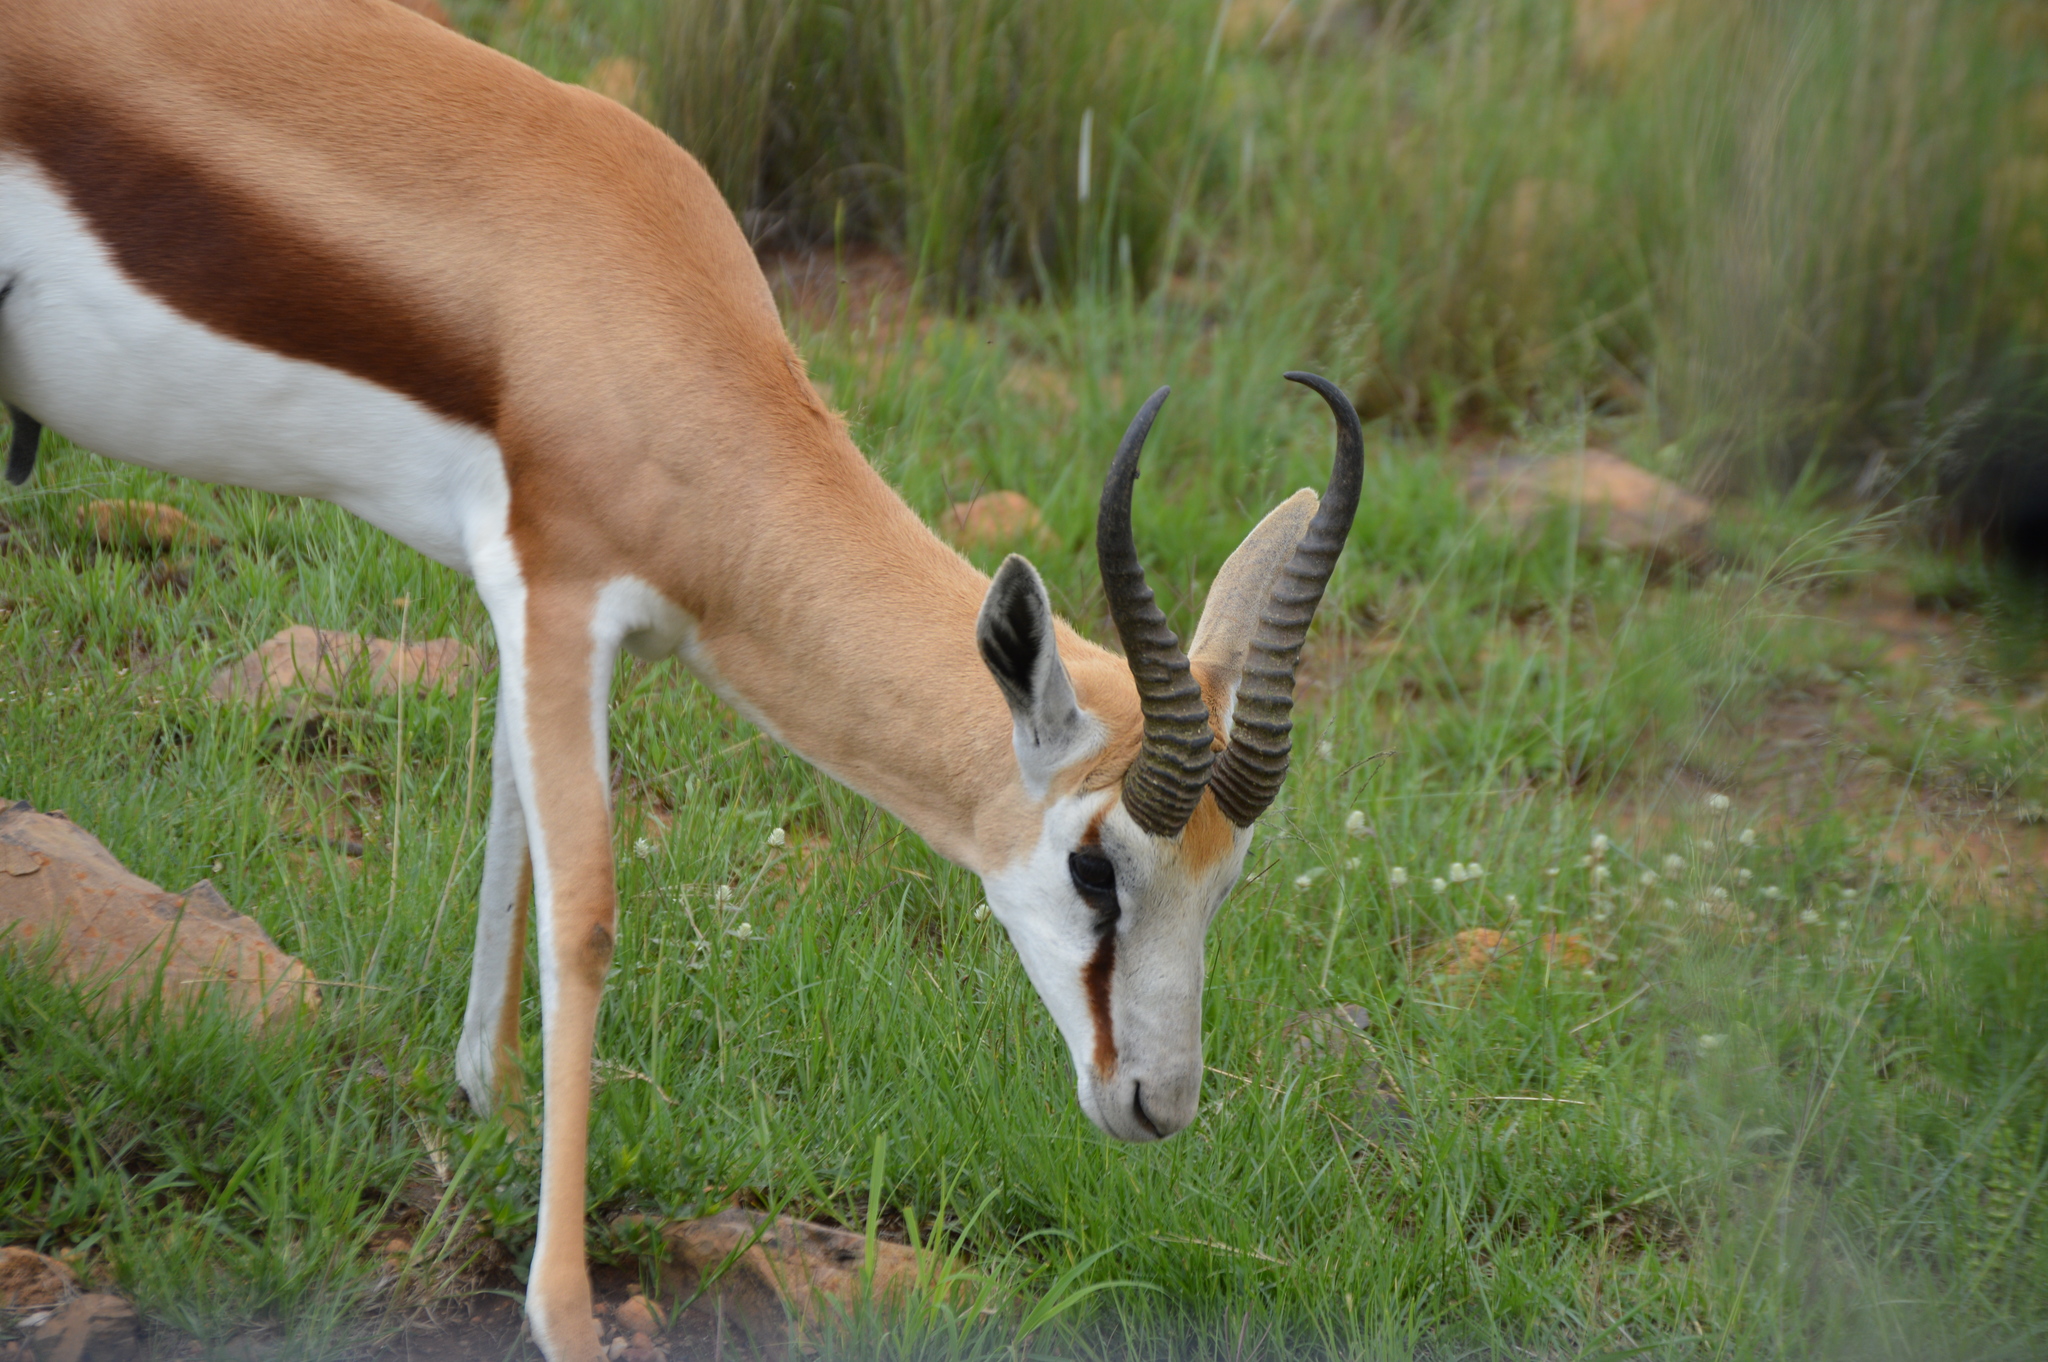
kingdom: Animalia
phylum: Chordata
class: Mammalia
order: Artiodactyla
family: Bovidae
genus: Antidorcas
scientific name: Antidorcas marsupialis
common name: Springbok
